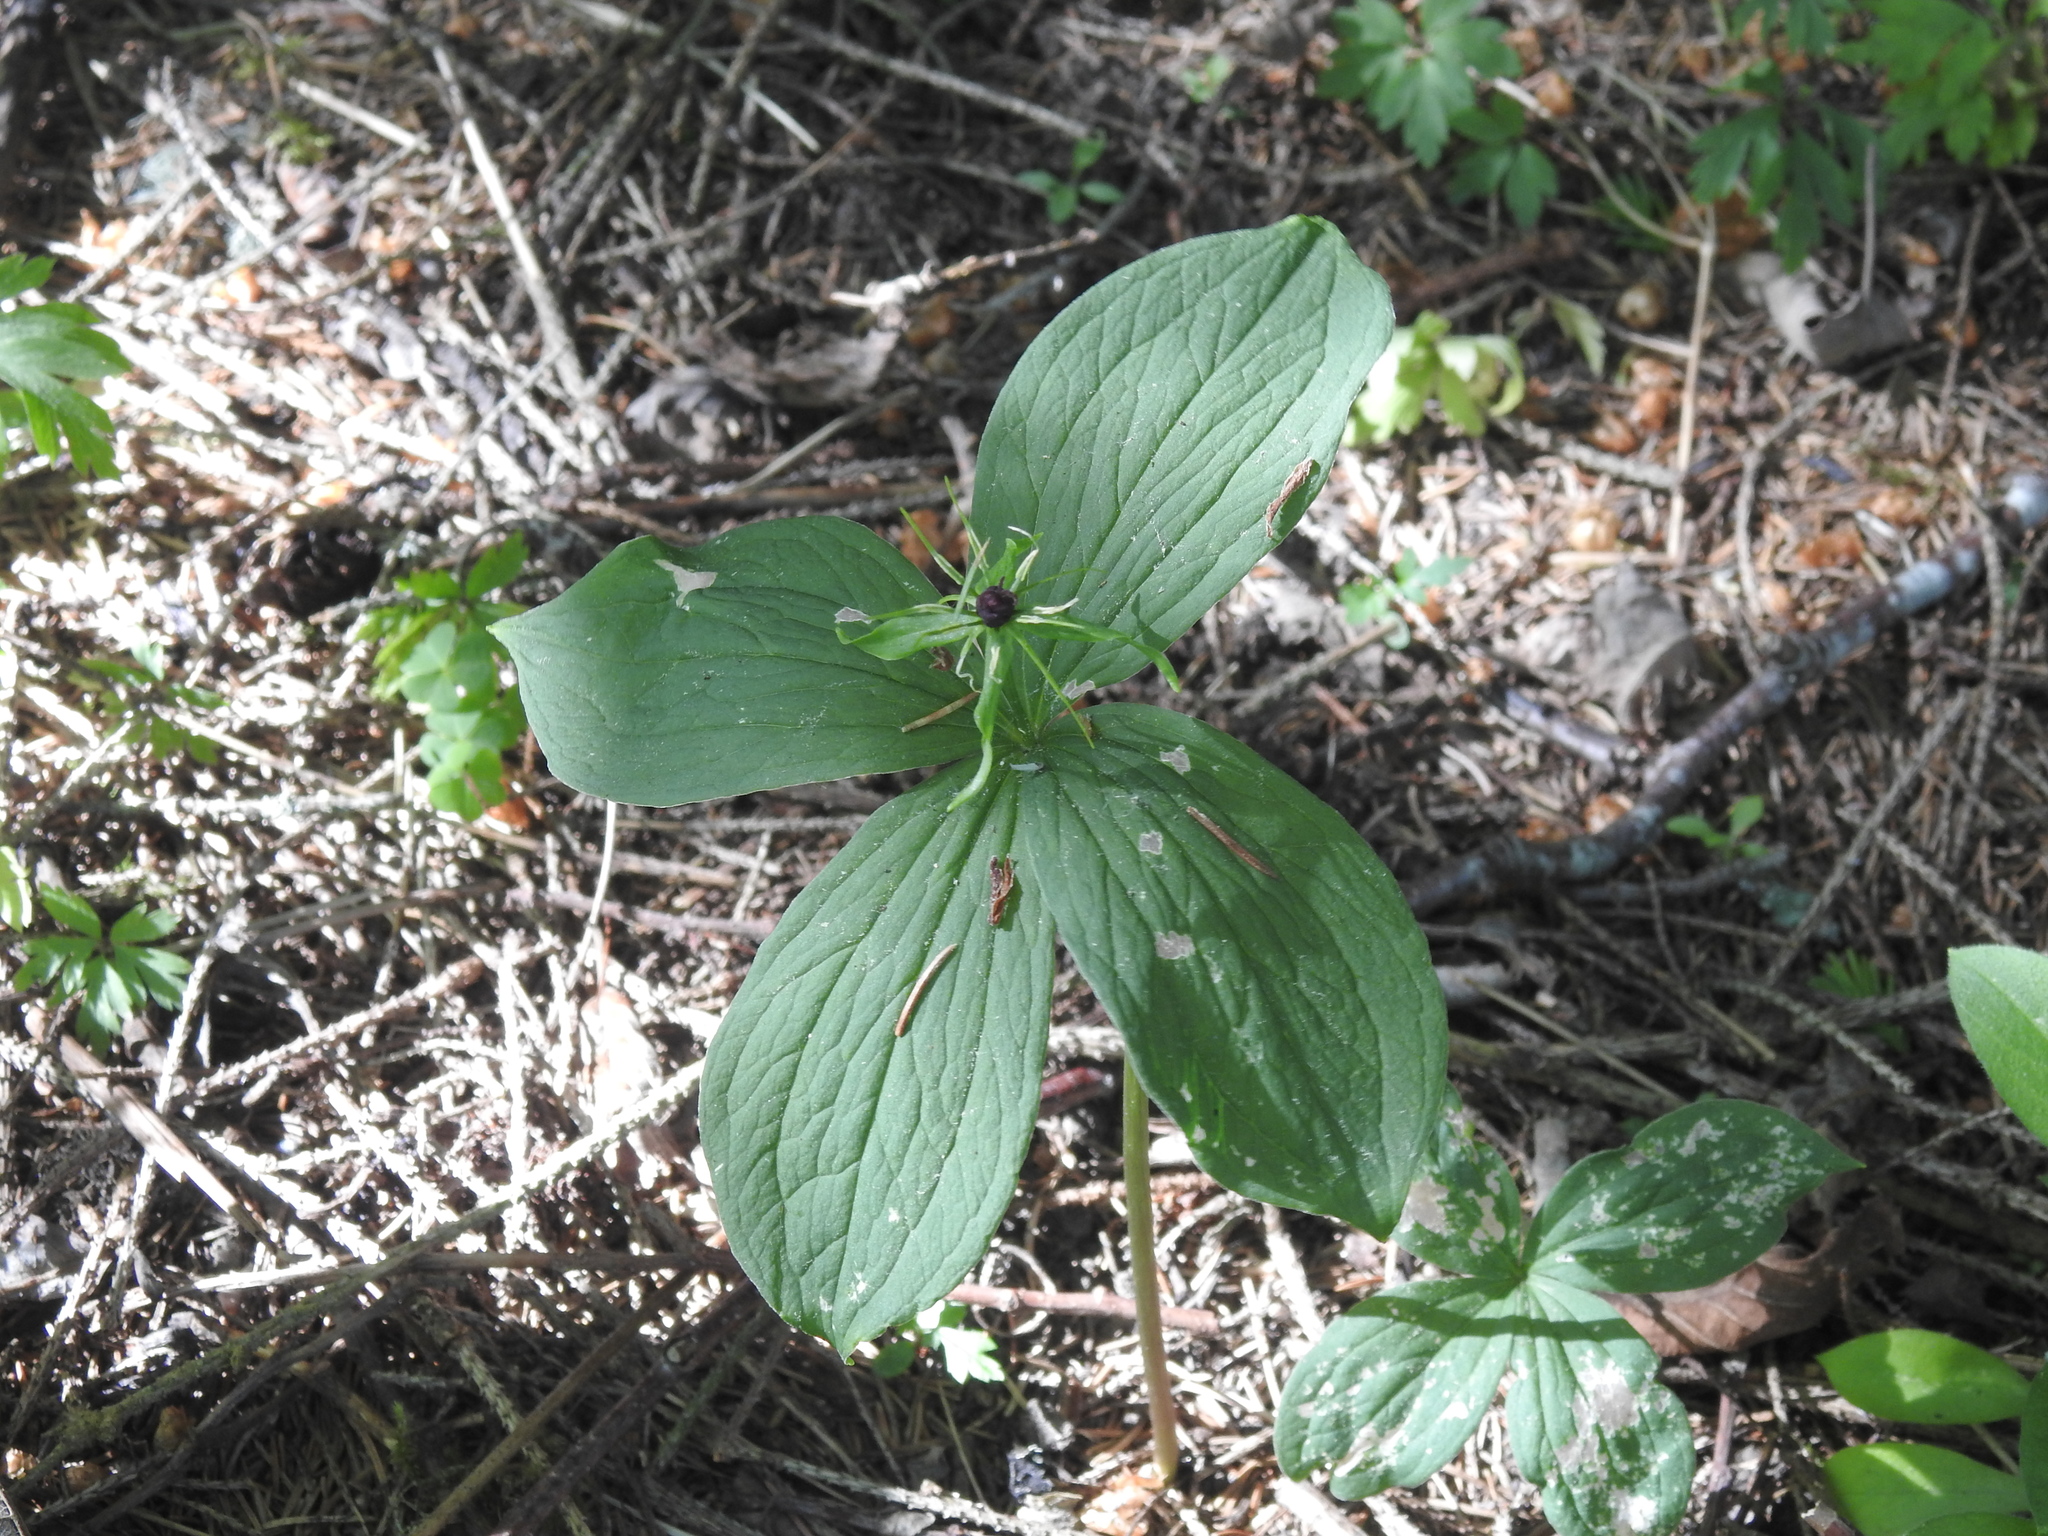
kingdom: Plantae
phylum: Tracheophyta
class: Liliopsida
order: Liliales
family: Melanthiaceae
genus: Paris
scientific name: Paris quadrifolia
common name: Herb-paris
